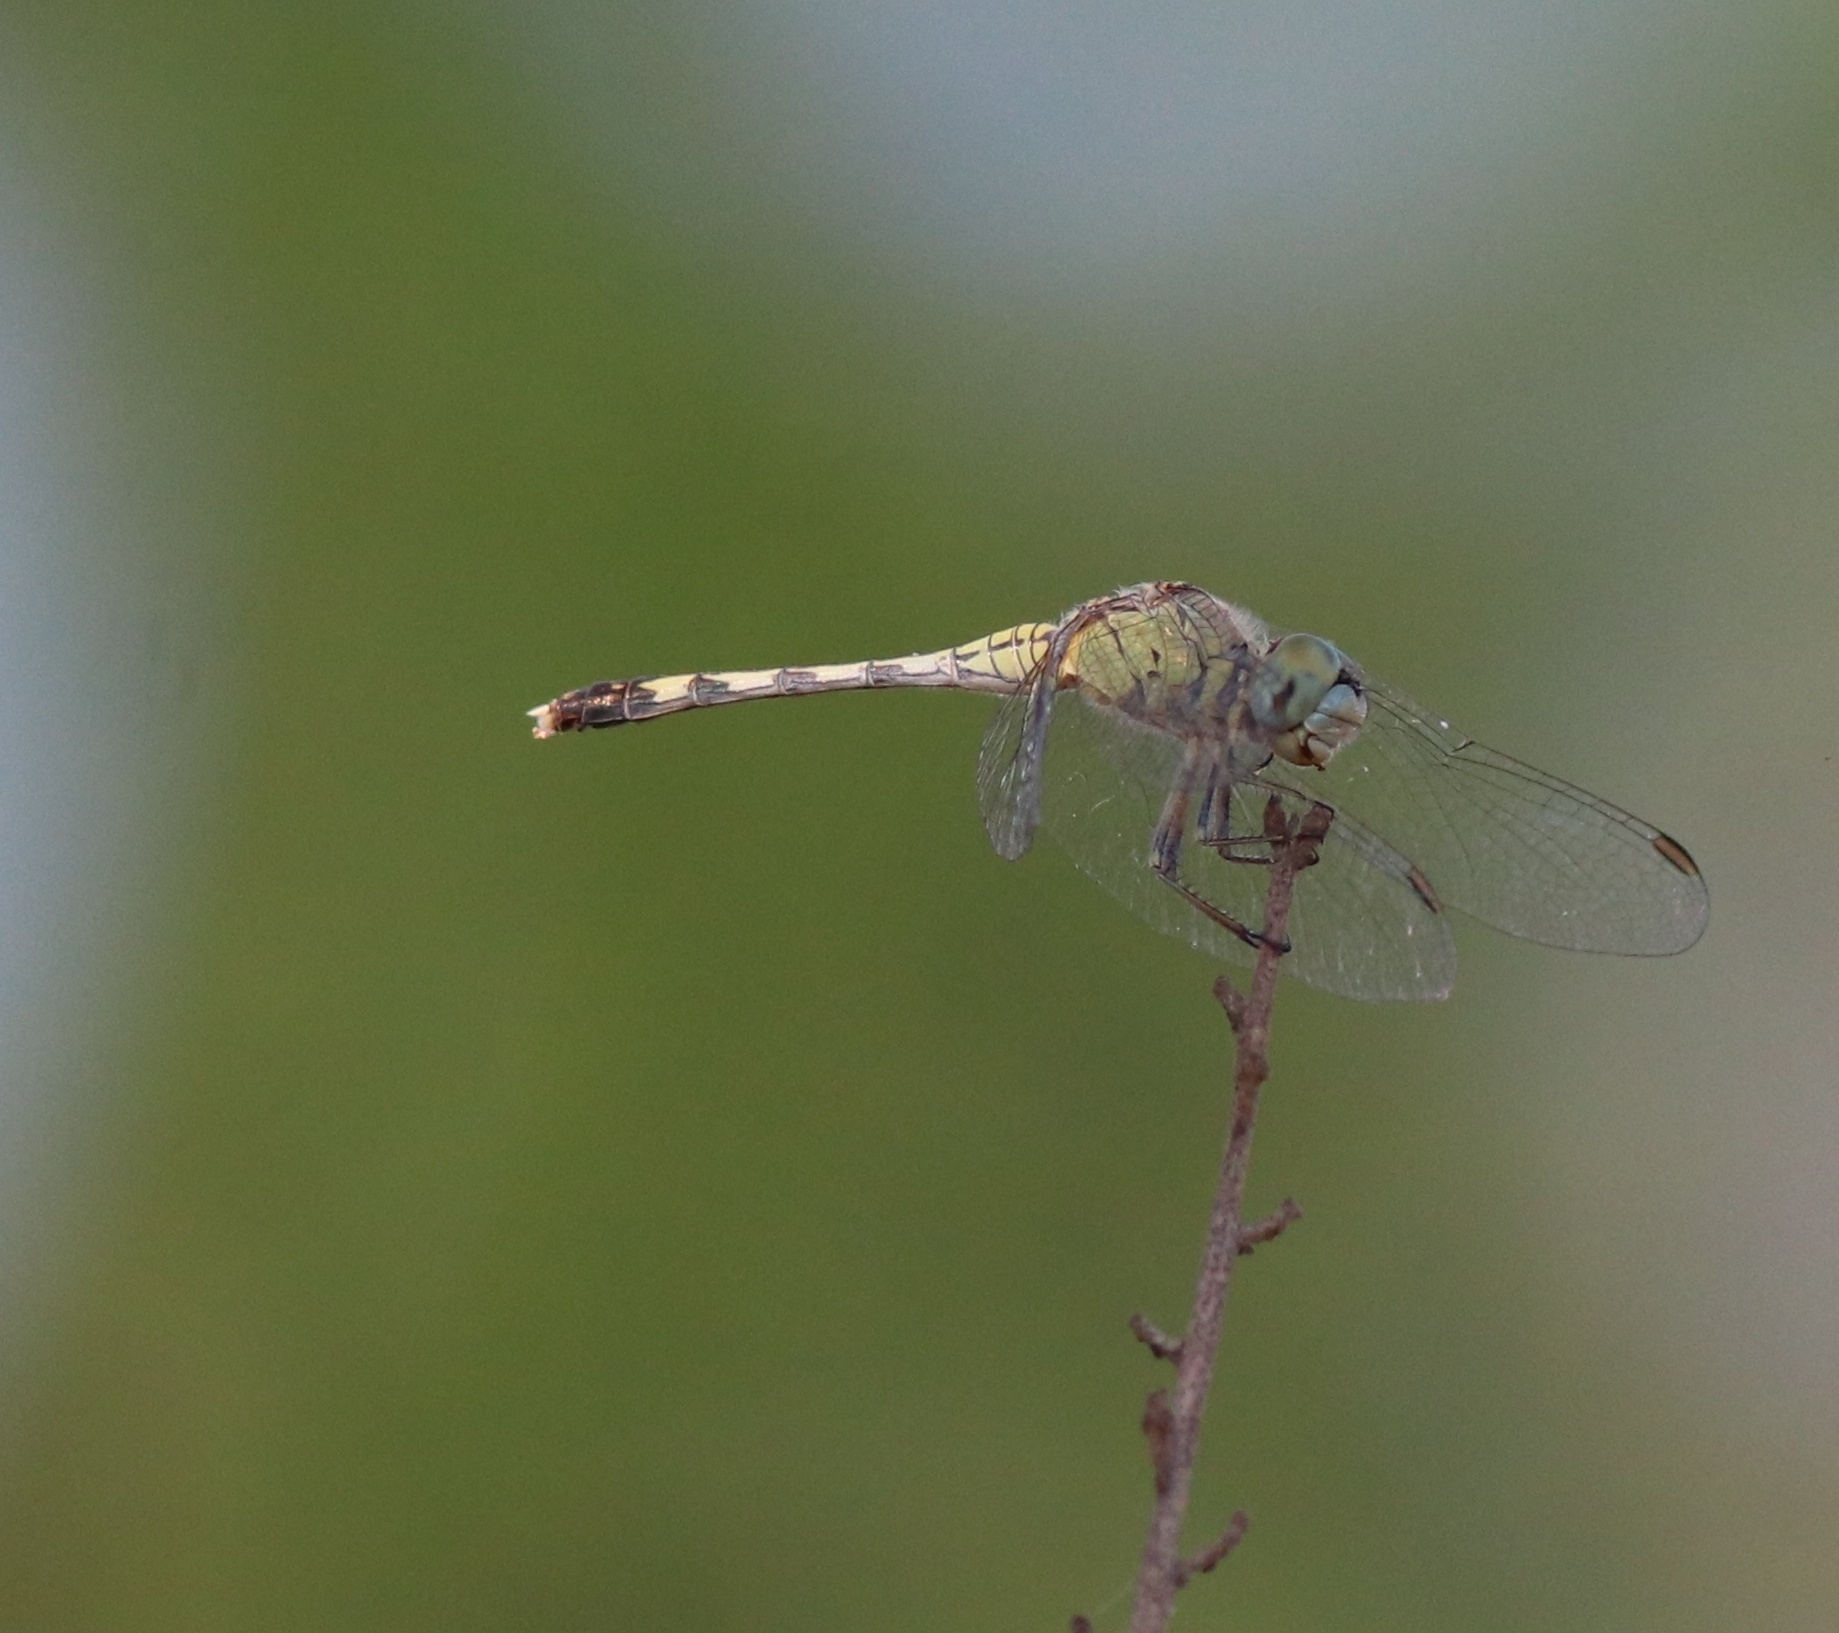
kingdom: Animalia
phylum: Arthropoda
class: Insecta
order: Odonata
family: Libellulidae
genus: Diplacodes
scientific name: Diplacodes trivialis
